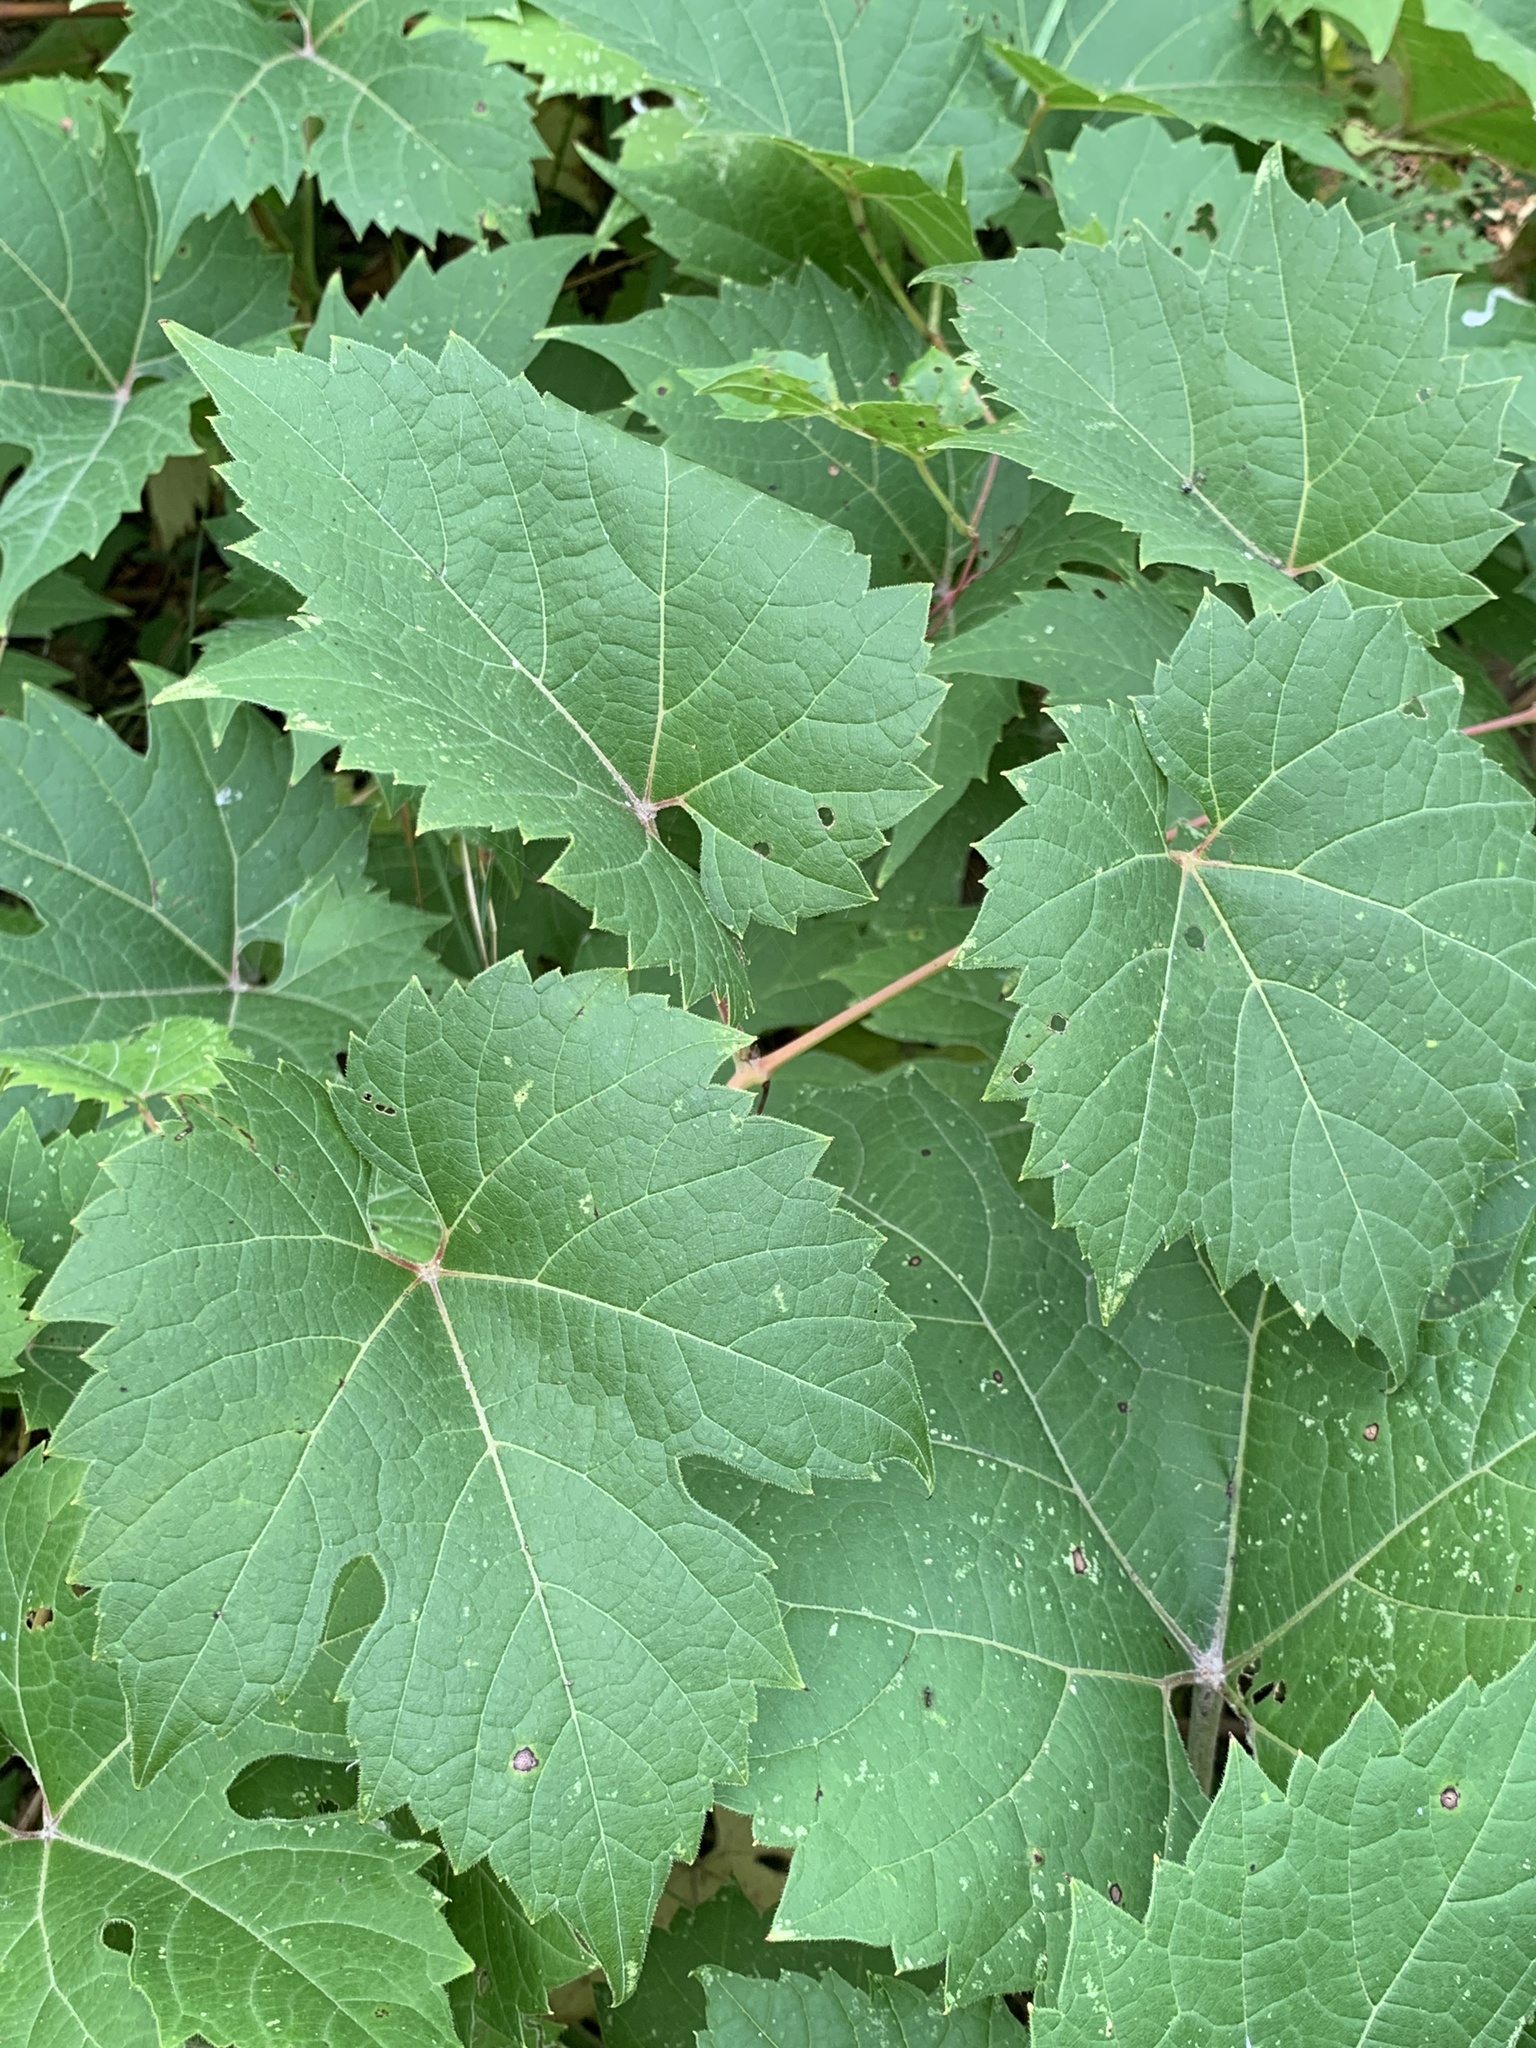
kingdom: Plantae
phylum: Tracheophyta
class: Magnoliopsida
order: Vitales
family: Vitaceae
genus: Vitis
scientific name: Vitis riparia
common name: Frost grape
